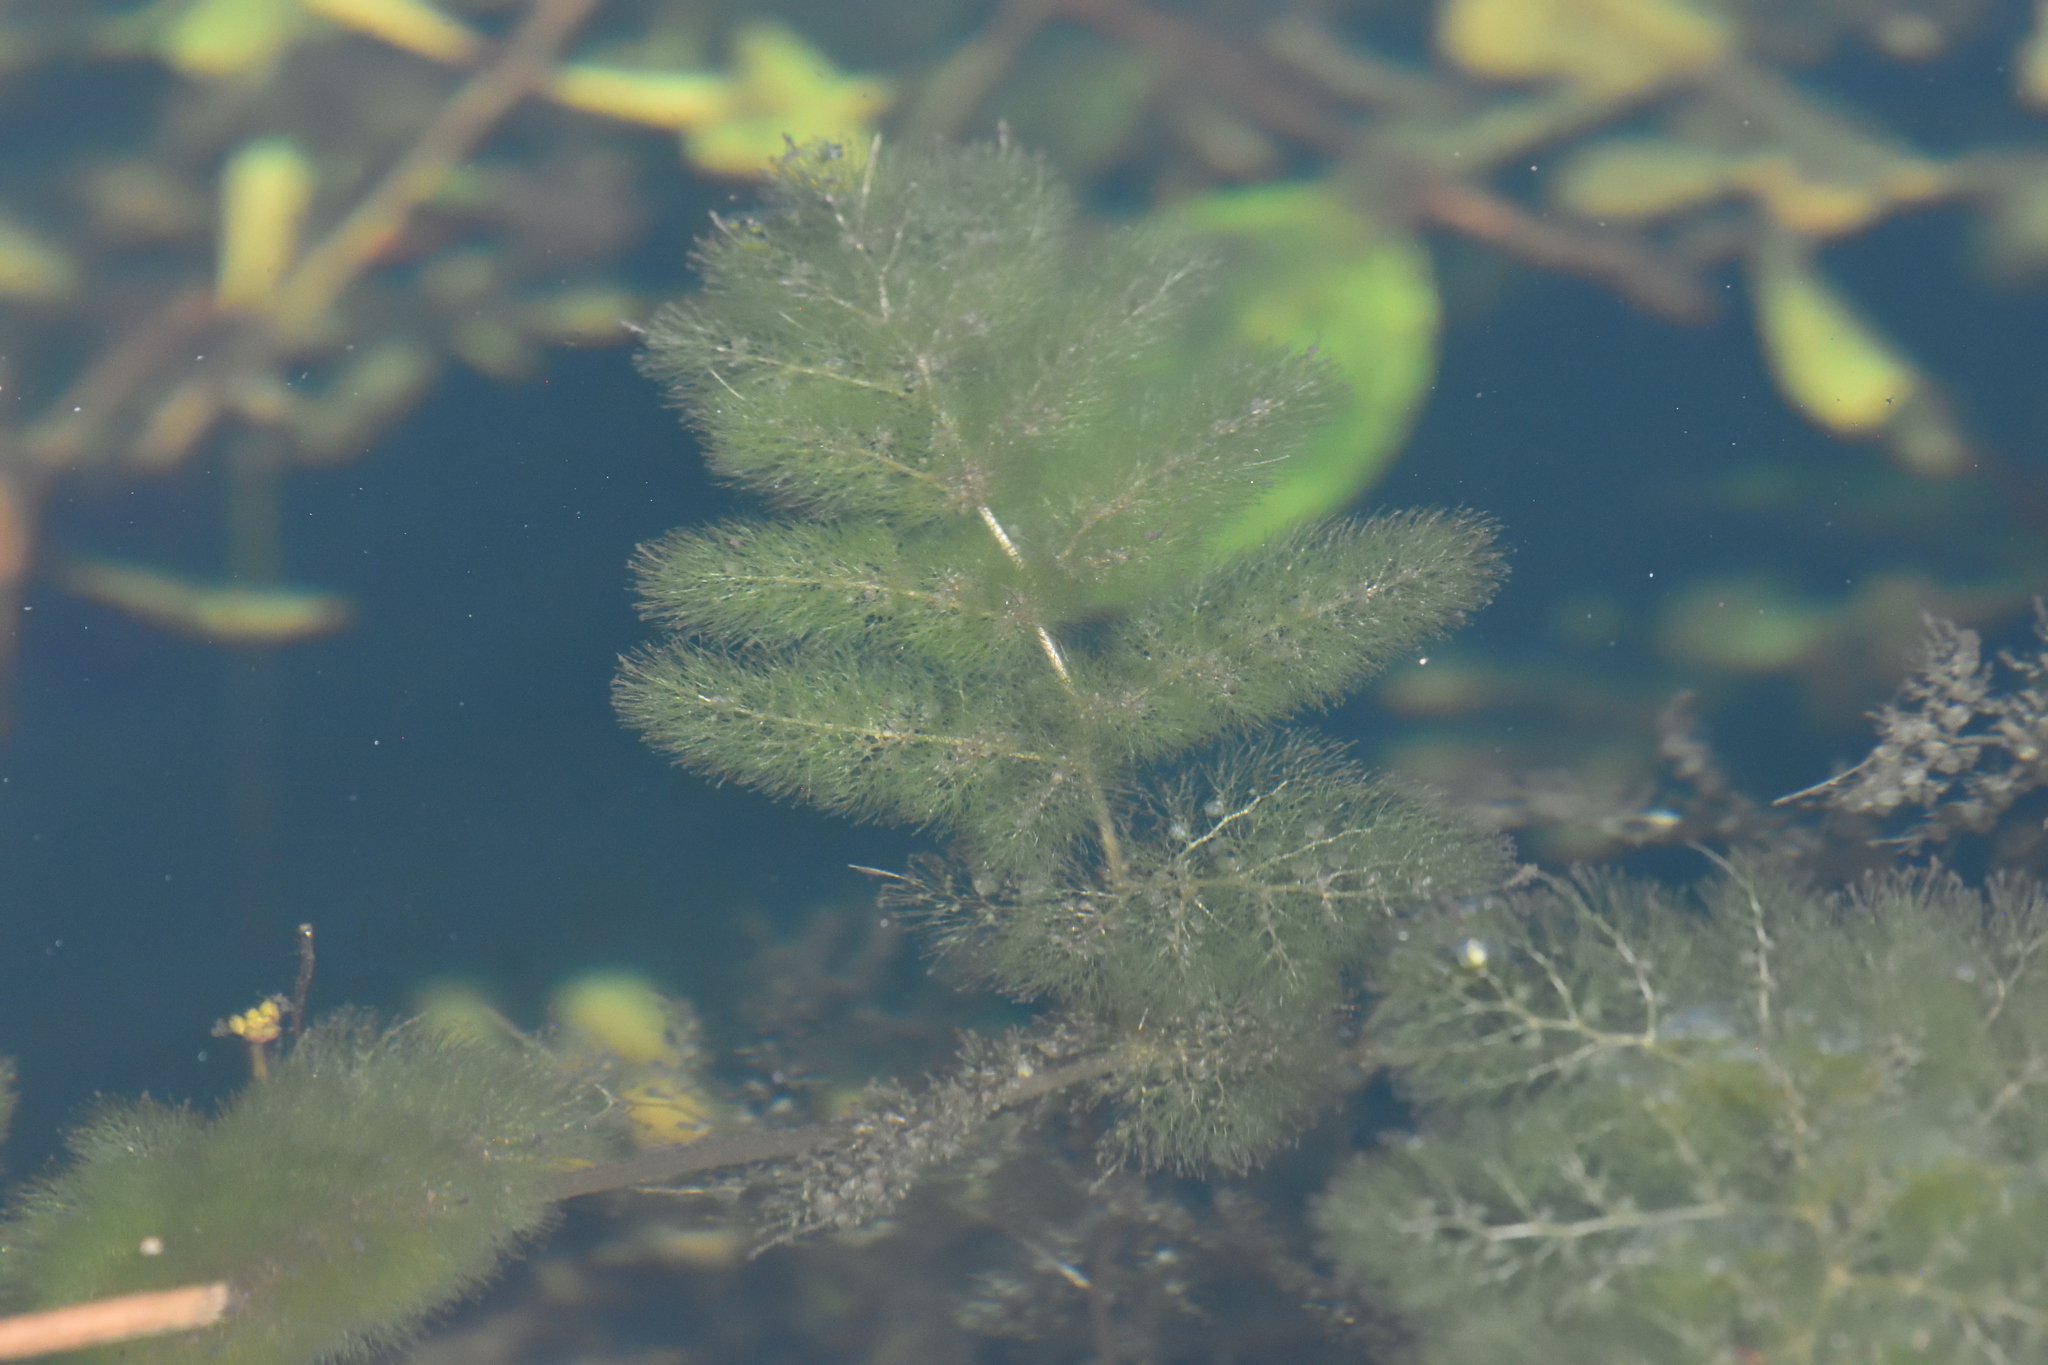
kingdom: Plantae
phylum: Tracheophyta
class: Magnoliopsida
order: Lamiales
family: Lentibulariaceae
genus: Utricularia
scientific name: Utricularia foliosa
